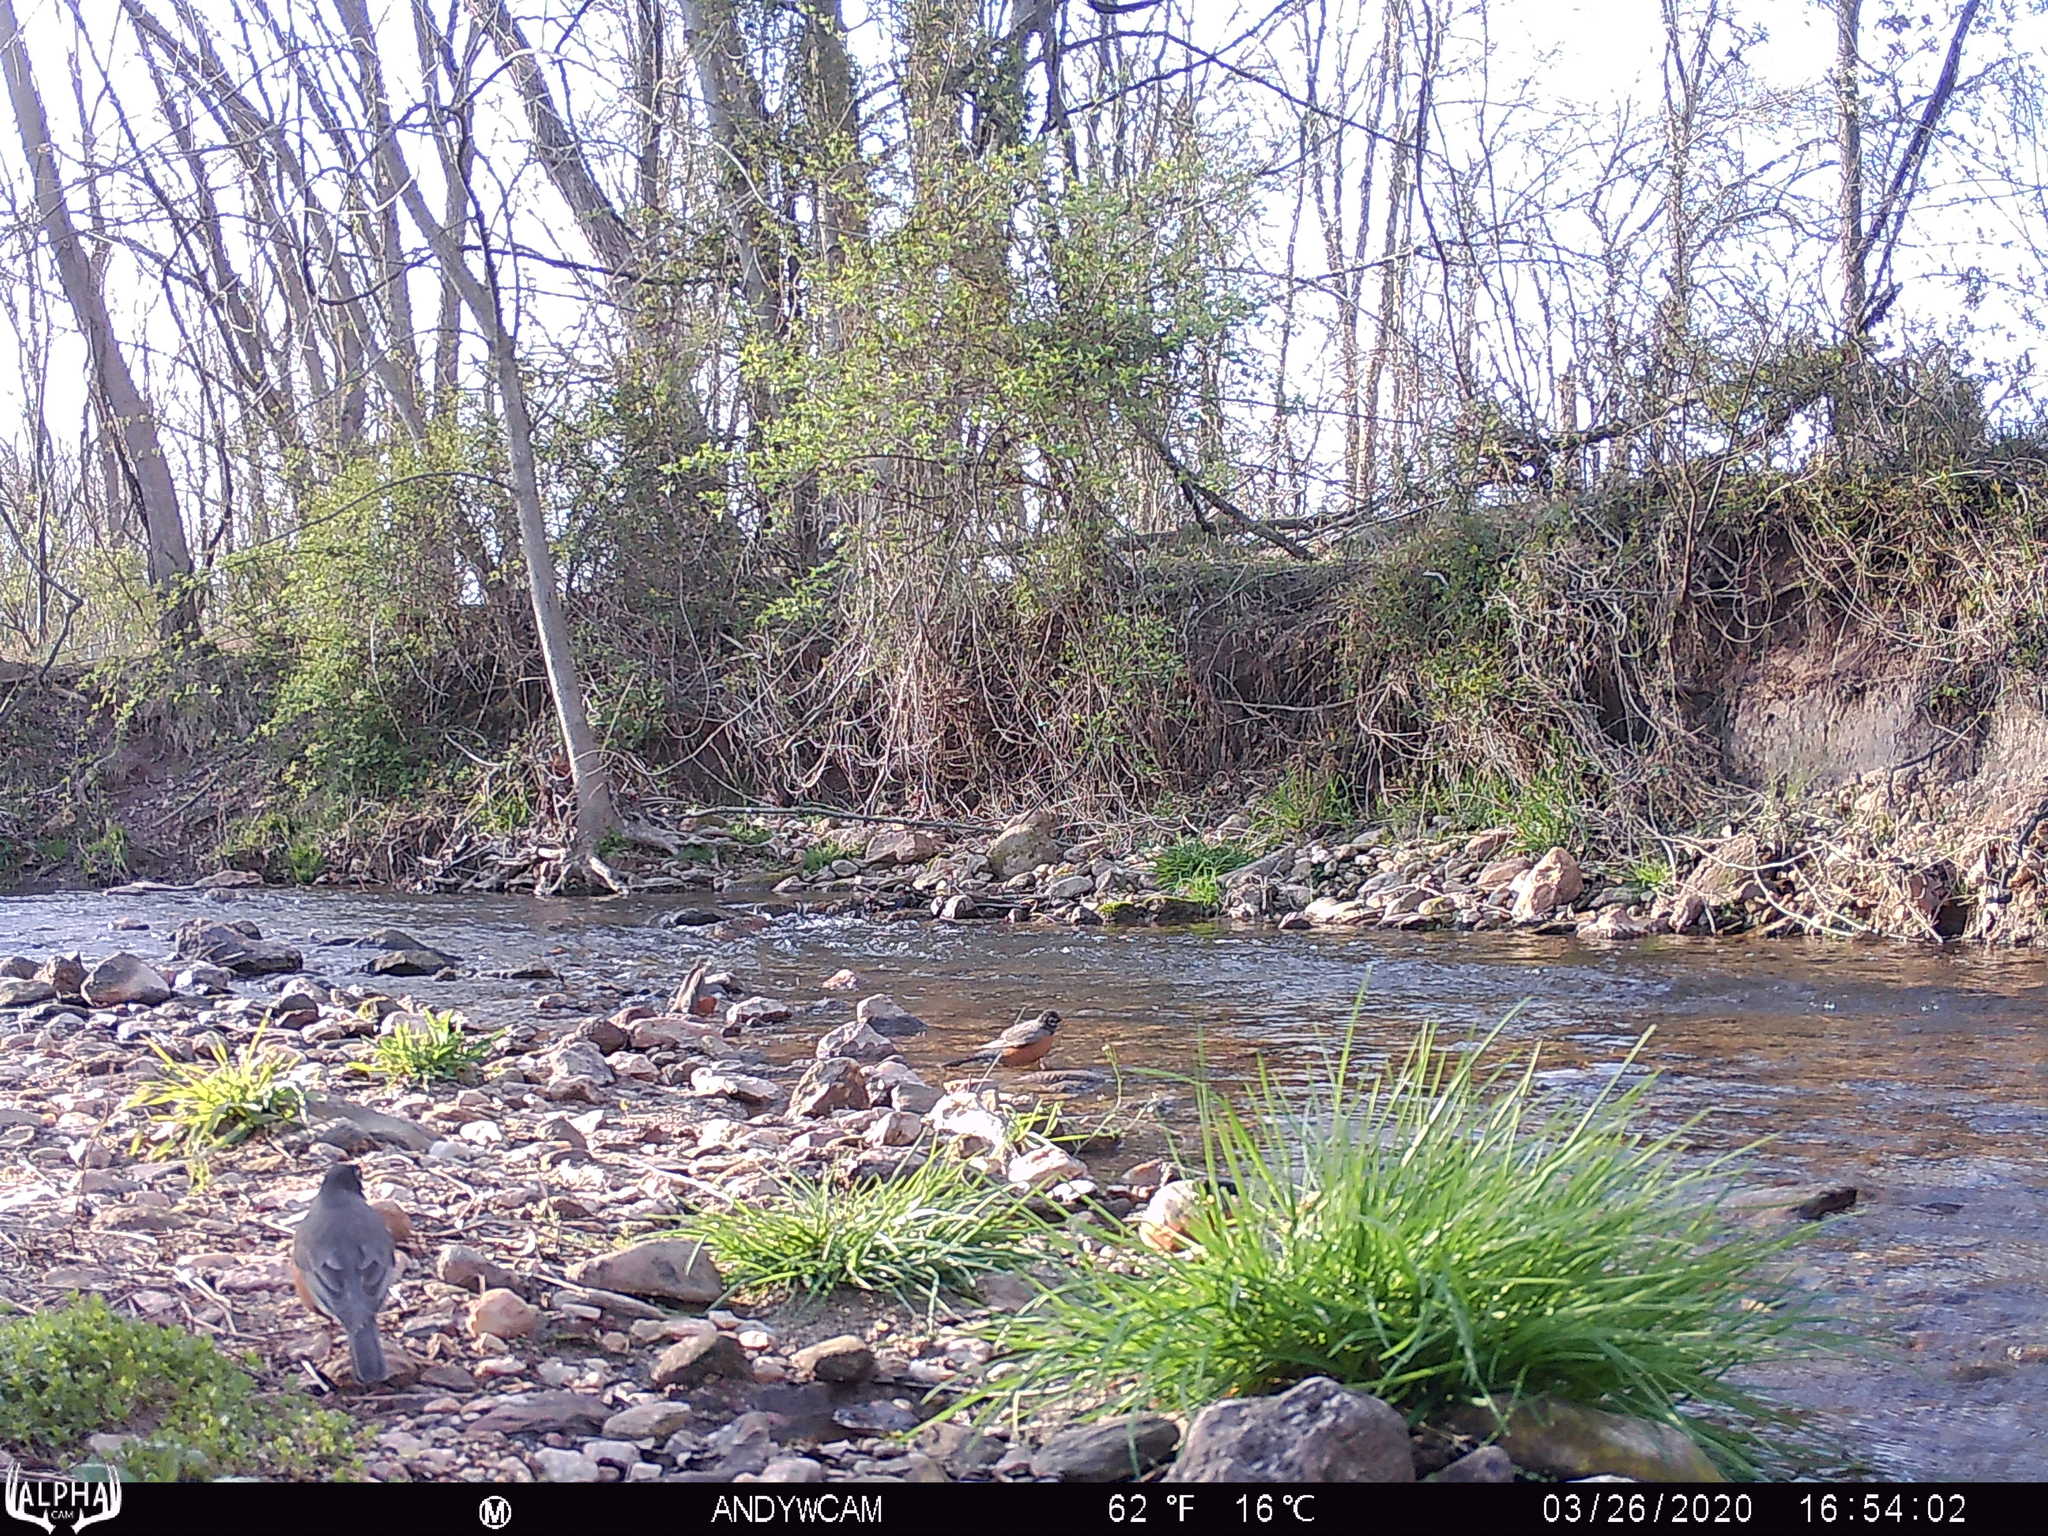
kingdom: Animalia
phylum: Chordata
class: Aves
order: Passeriformes
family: Turdidae
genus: Turdus
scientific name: Turdus migratorius
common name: American robin
